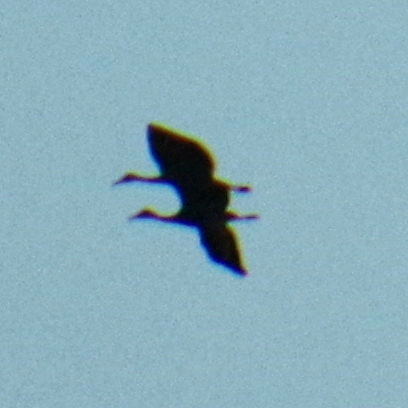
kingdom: Animalia
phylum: Chordata
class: Aves
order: Gruiformes
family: Gruidae
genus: Grus
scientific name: Grus canadensis
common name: Sandhill crane
